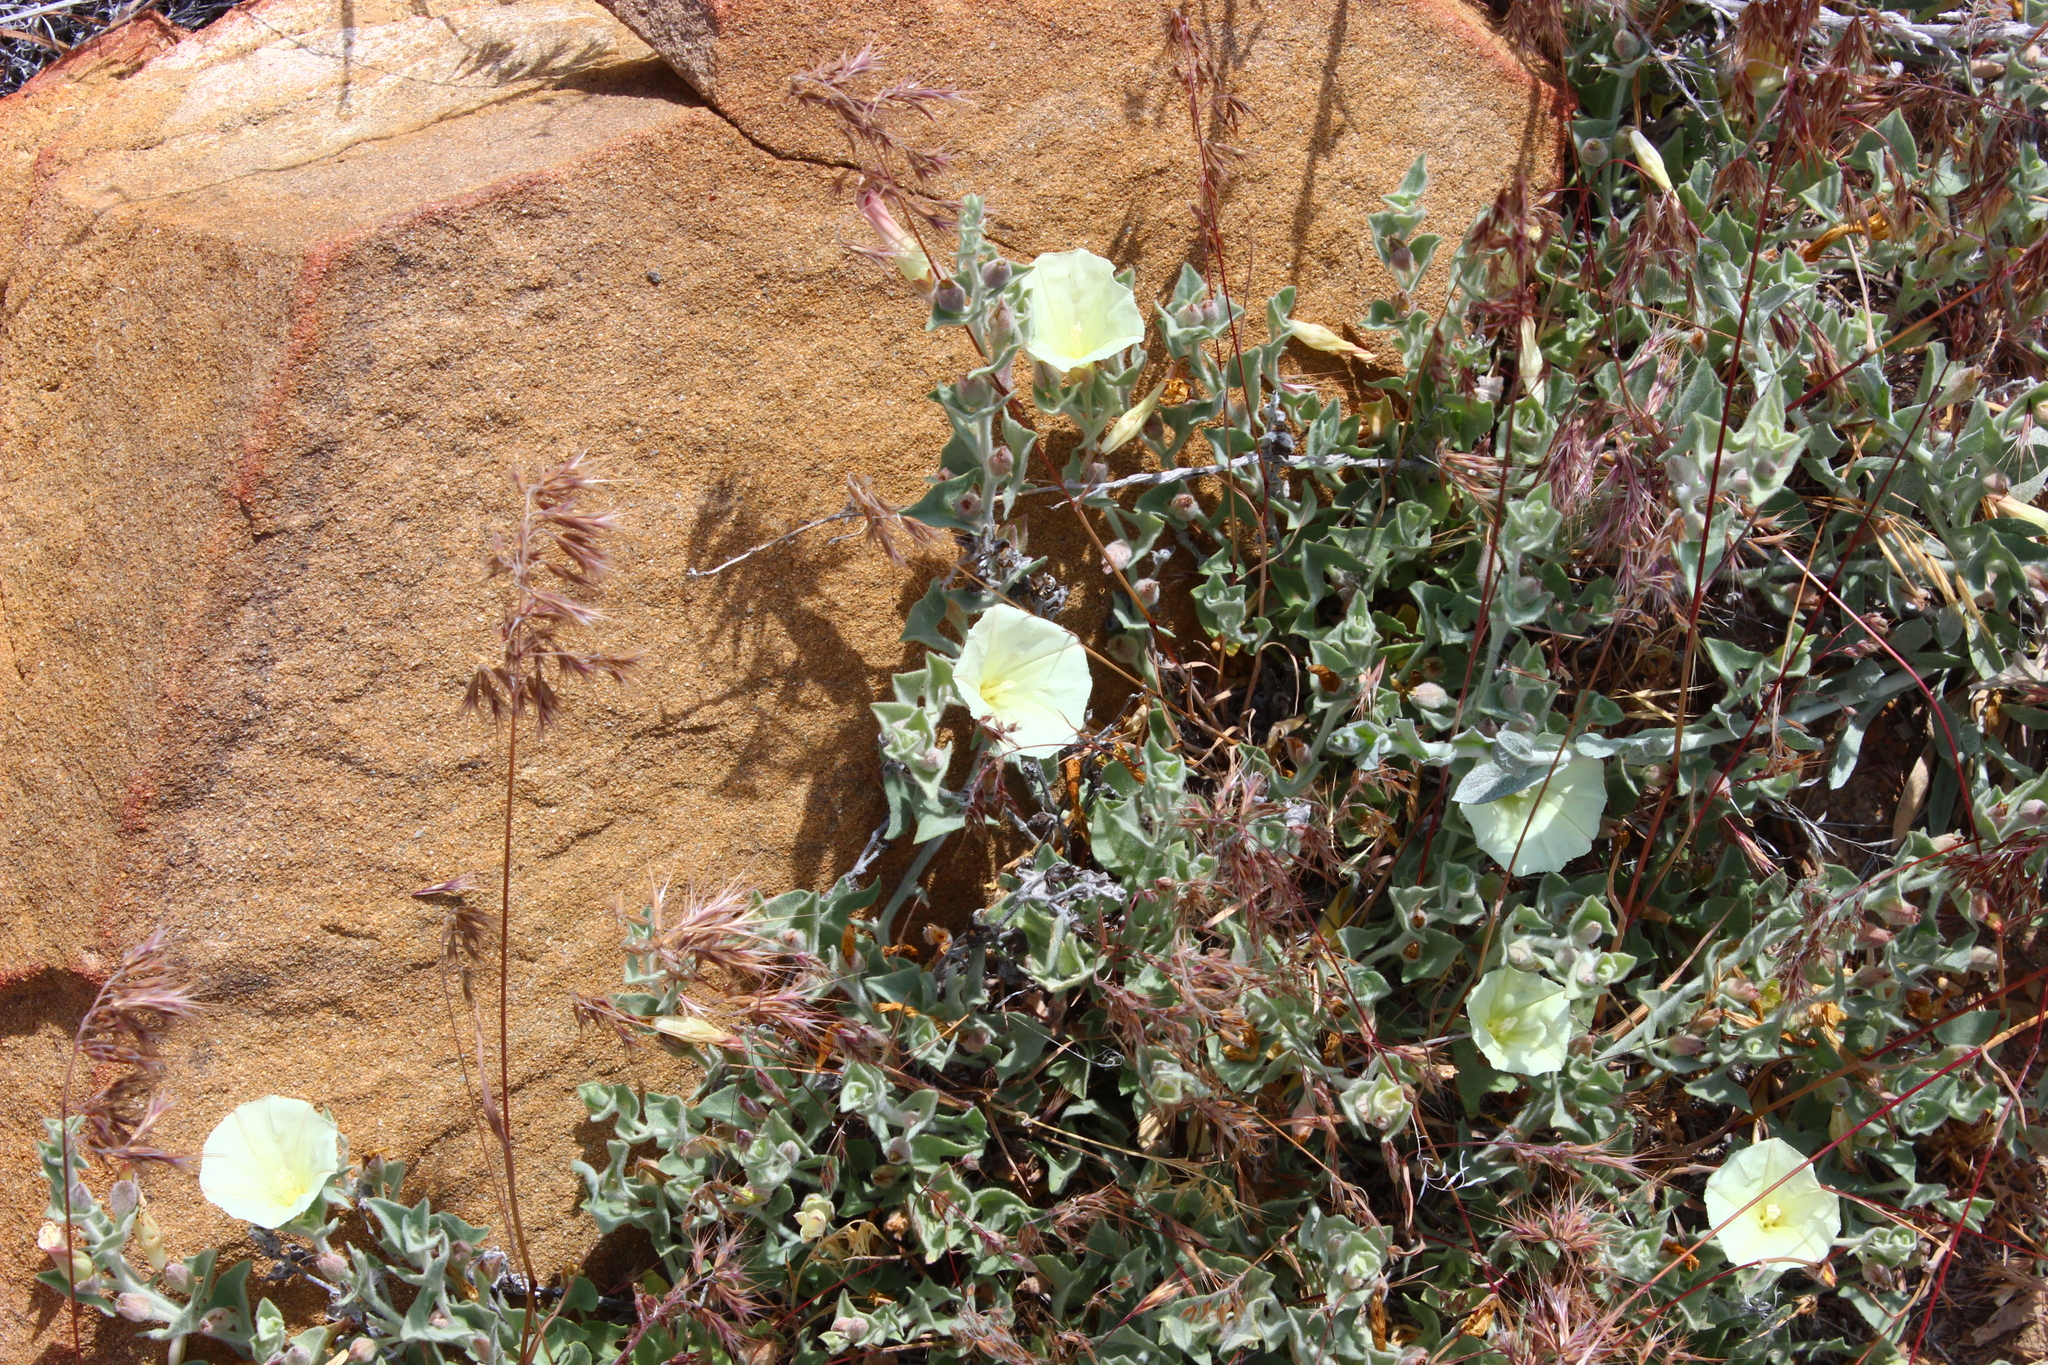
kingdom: Plantae
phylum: Tracheophyta
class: Magnoliopsida
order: Solanales
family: Convolvulaceae
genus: Calystegia
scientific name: Calystegia malacophylla
